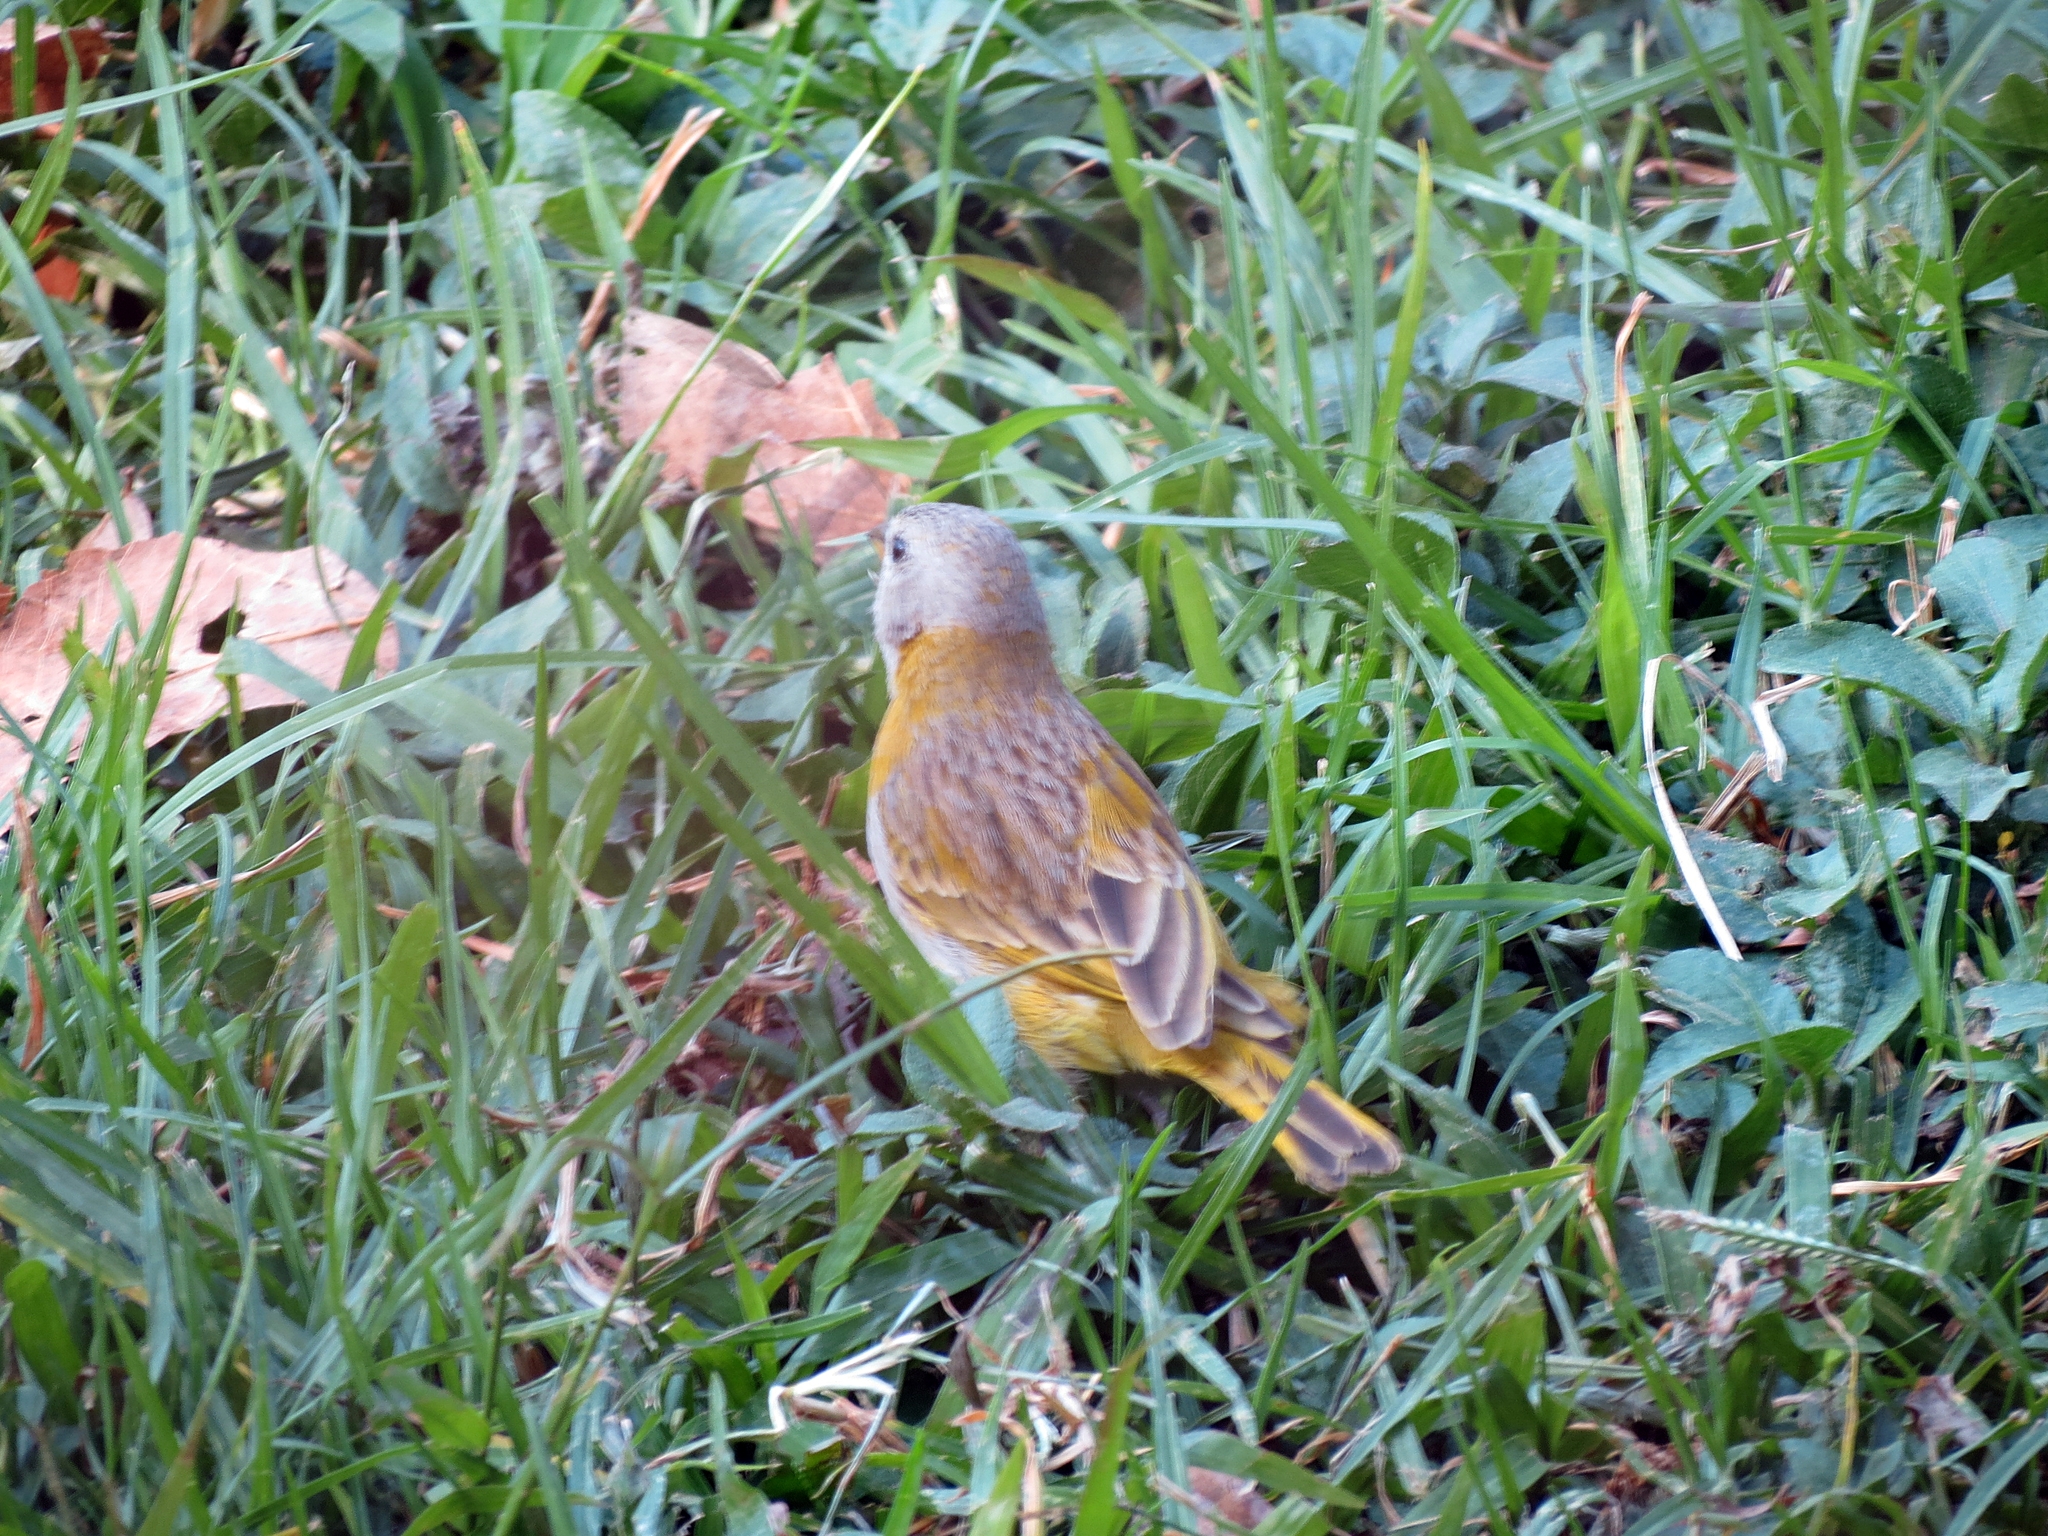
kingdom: Animalia
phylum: Chordata
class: Aves
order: Passeriformes
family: Thraupidae
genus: Sicalis
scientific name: Sicalis flaveola
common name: Saffron finch
